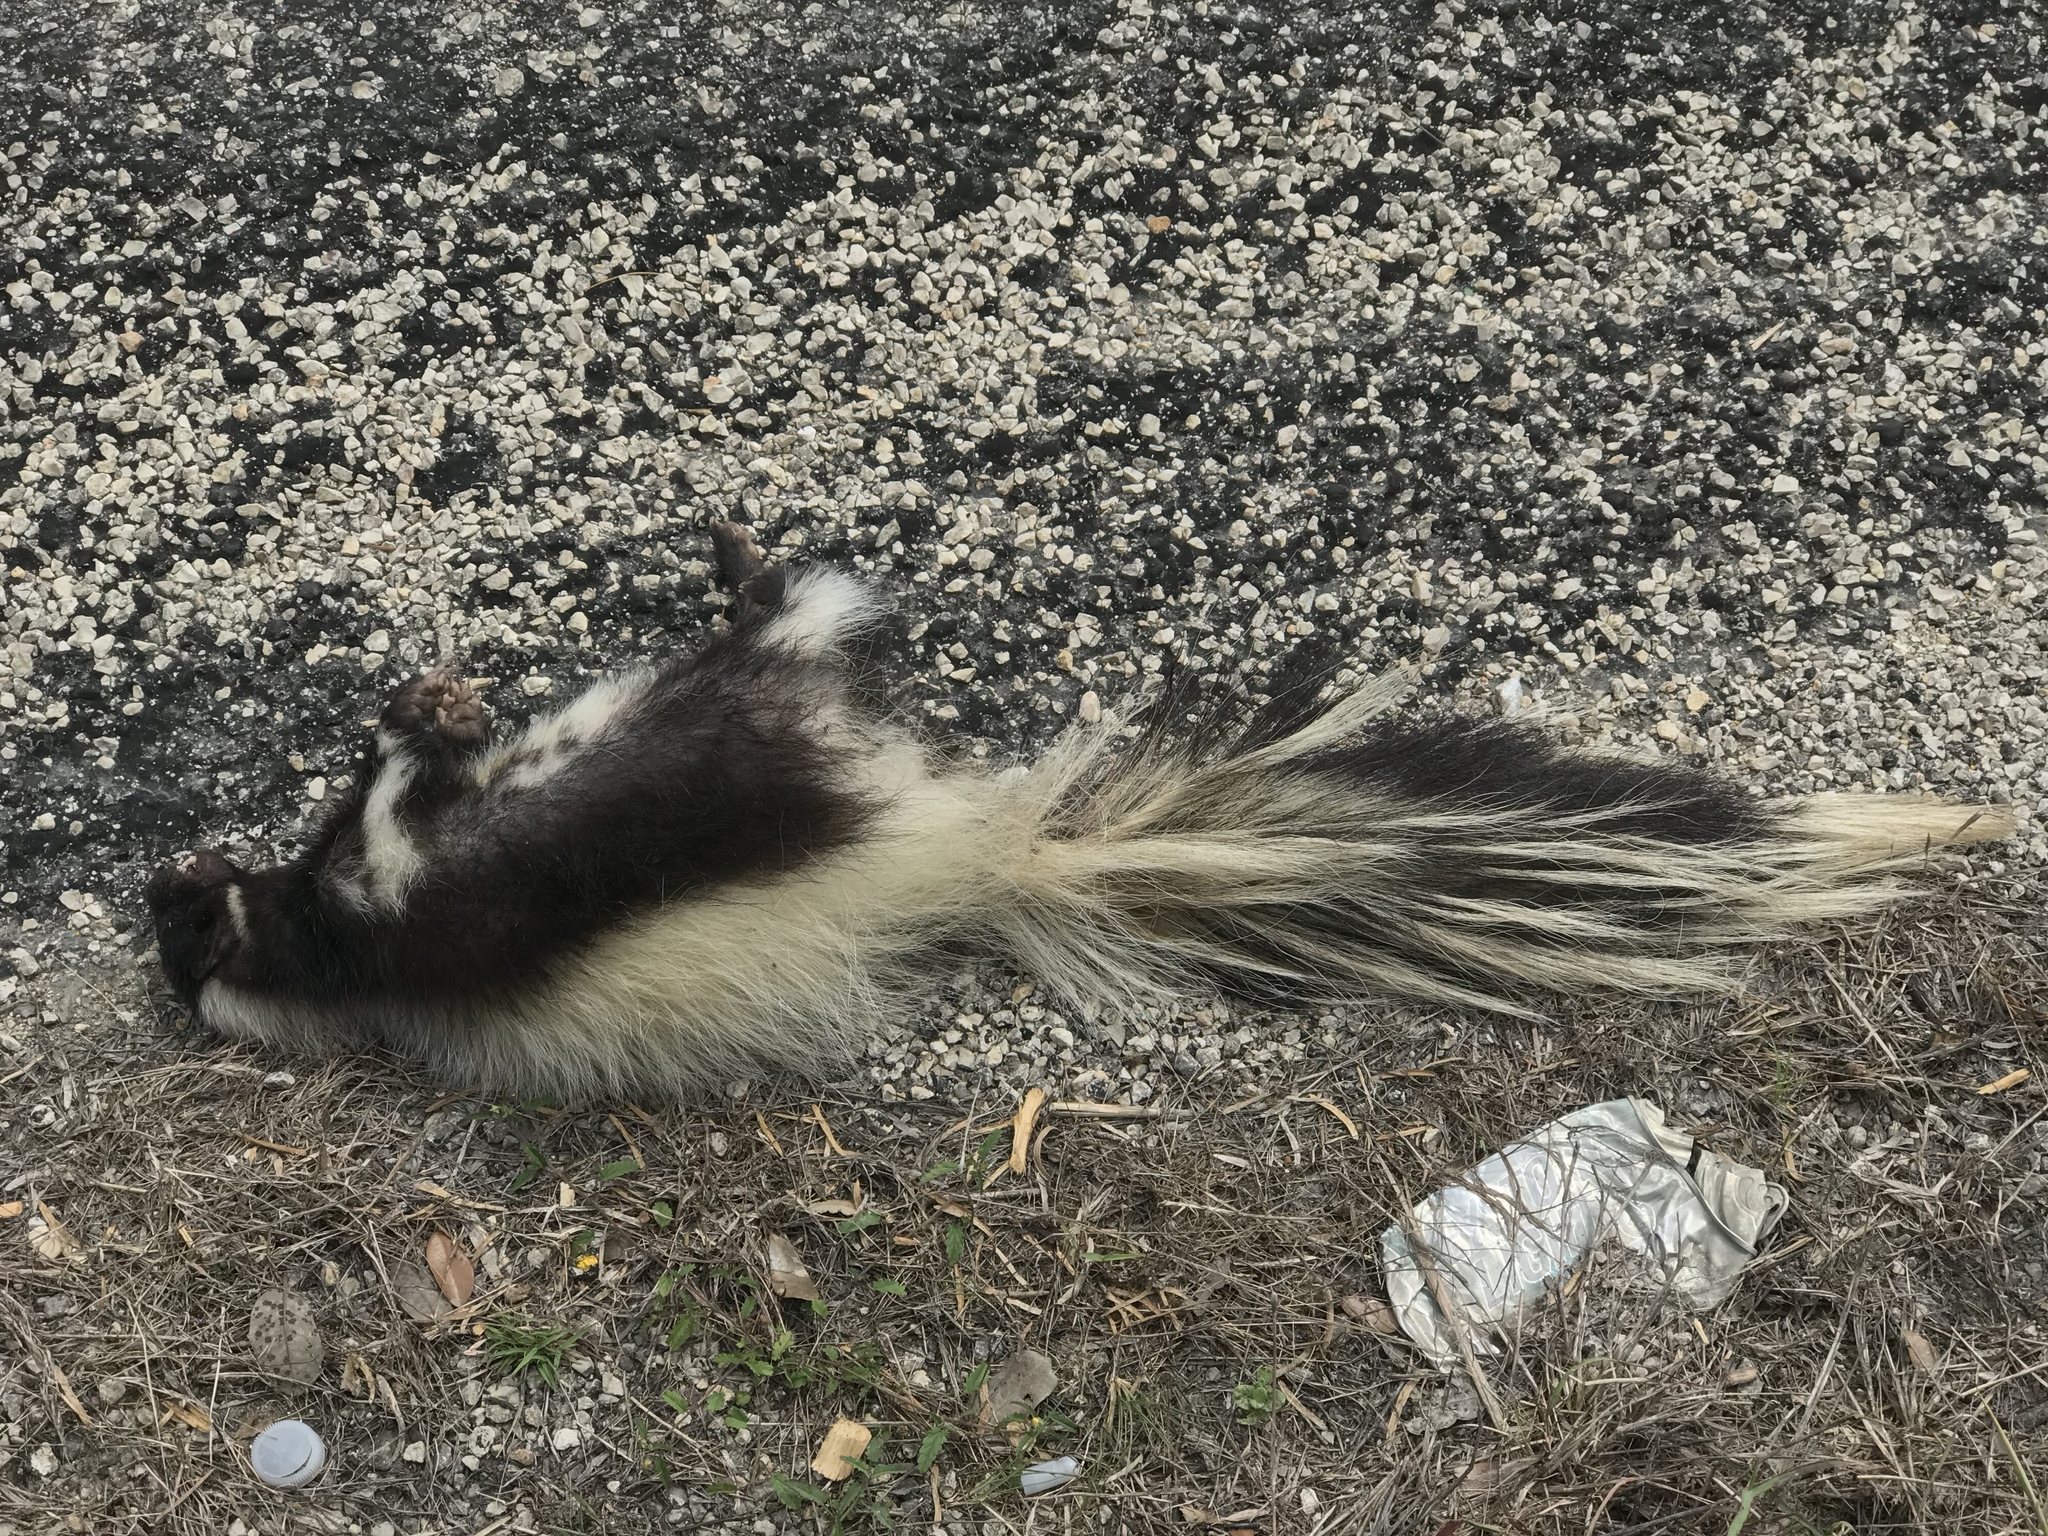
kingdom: Animalia
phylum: Chordata
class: Mammalia
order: Carnivora
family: Mephitidae
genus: Mephitis
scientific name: Mephitis mephitis
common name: Striped skunk
